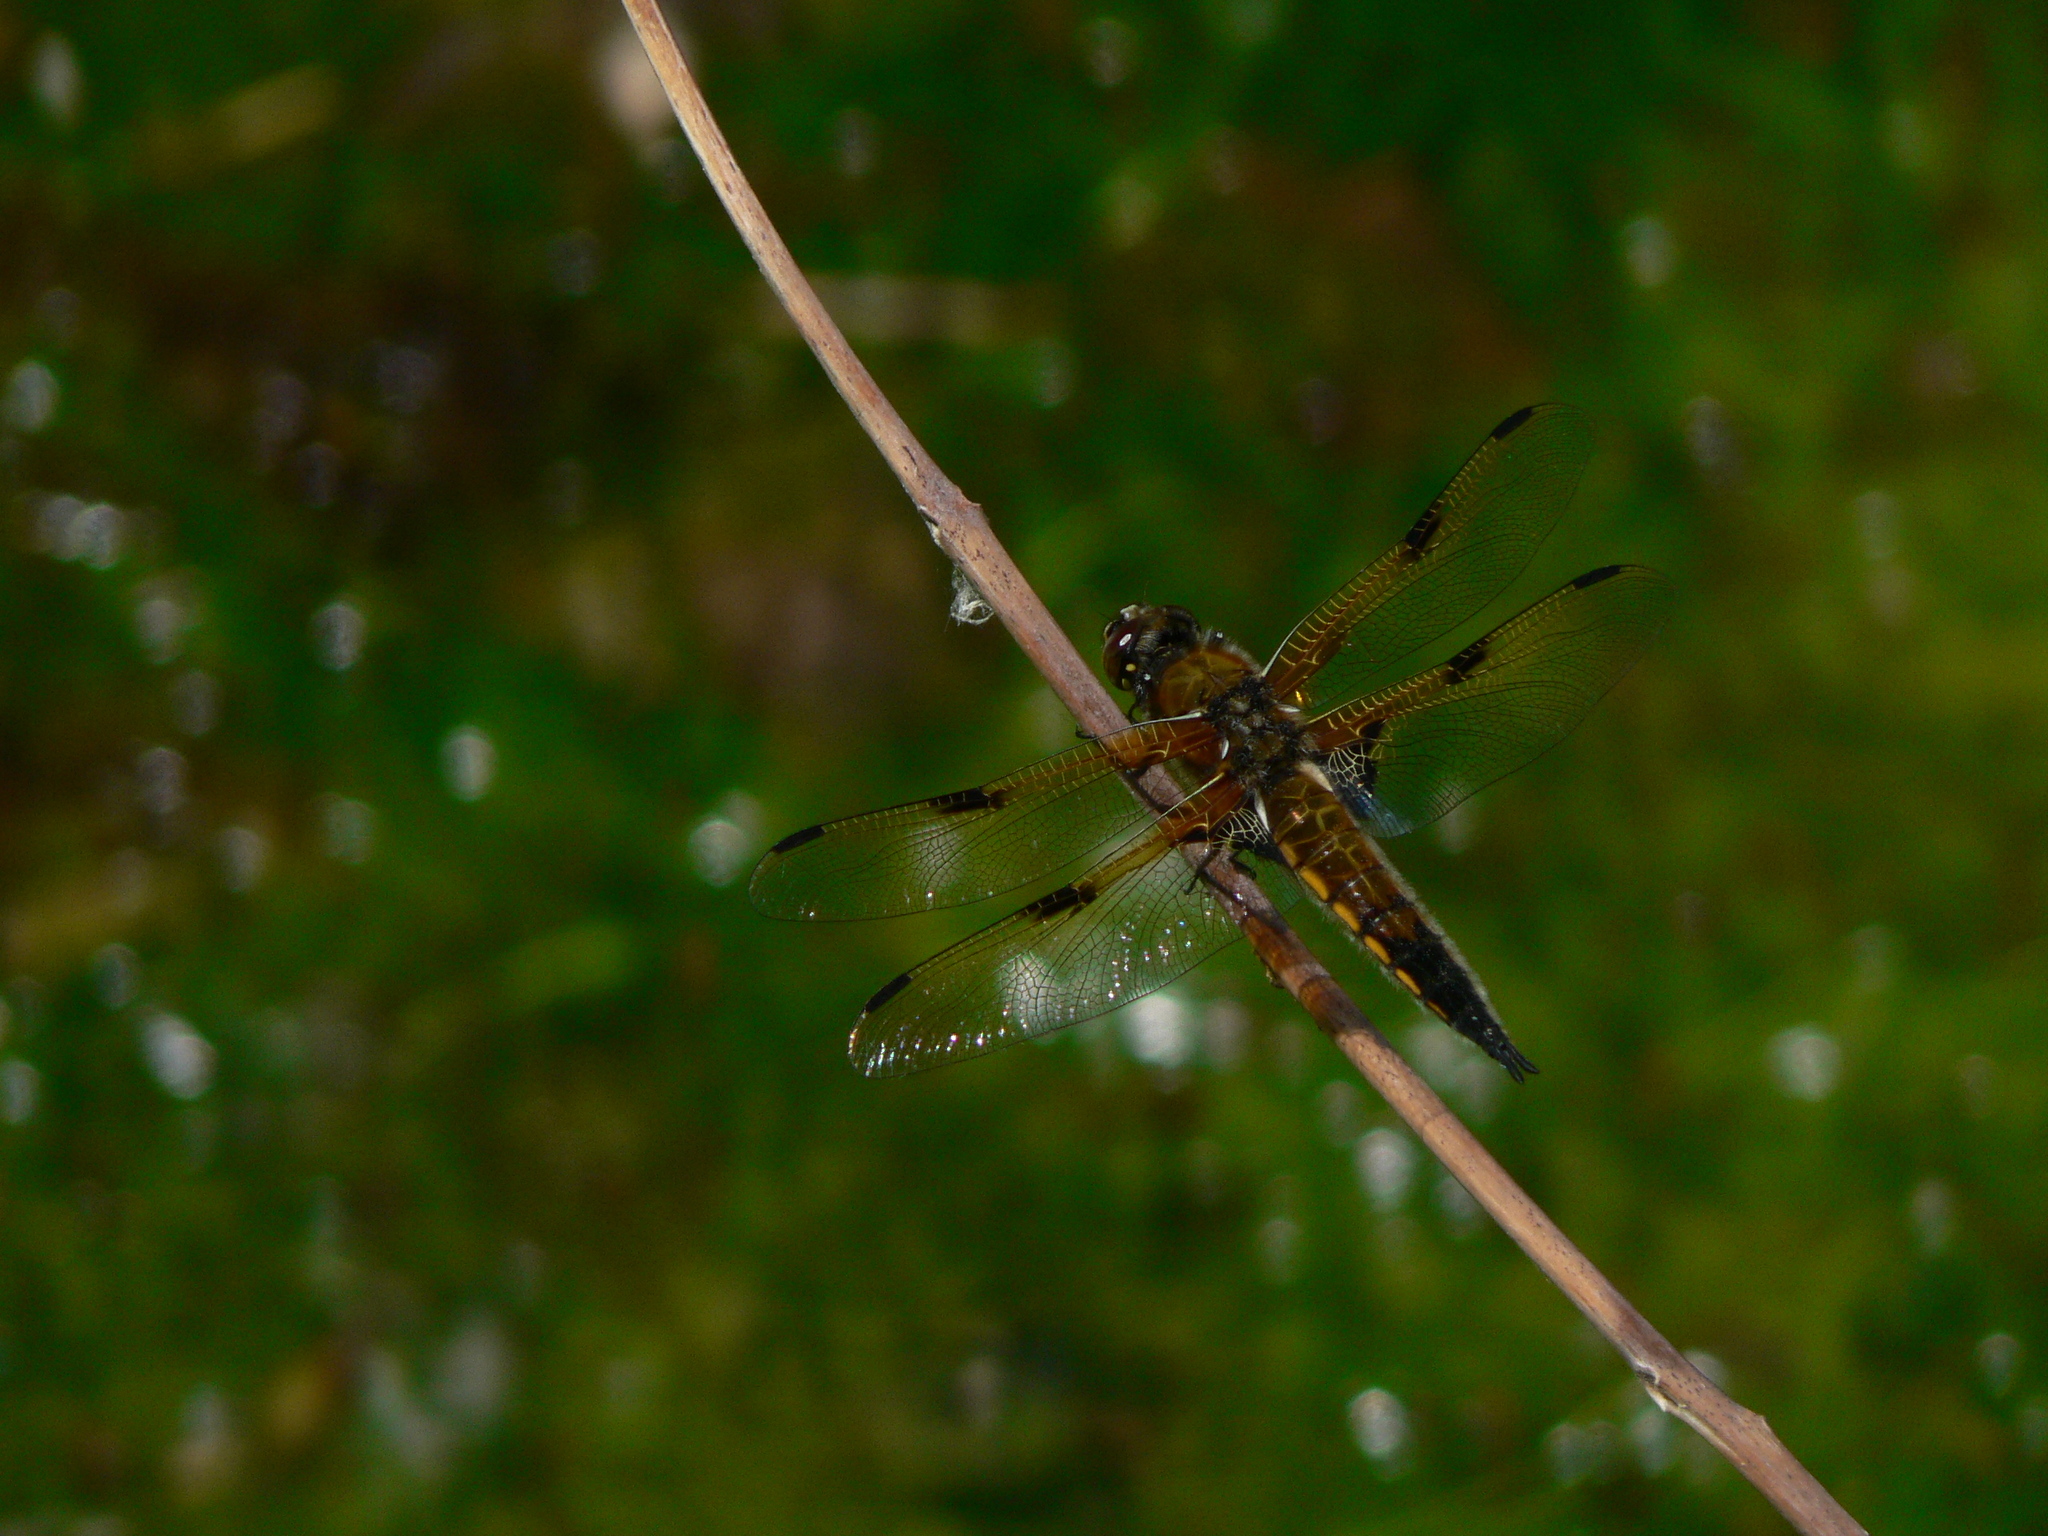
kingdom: Animalia
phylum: Arthropoda
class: Insecta
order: Odonata
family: Libellulidae
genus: Libellula
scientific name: Libellula quadrimaculata
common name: Four-spotted chaser
